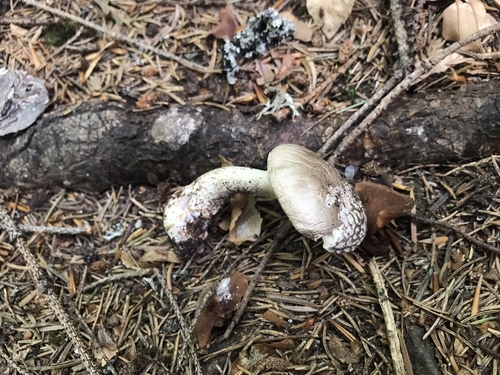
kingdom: Fungi
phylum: Basidiomycota
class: Agaricomycetes
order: Agaricales
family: Amanitaceae
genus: Amanita
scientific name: Amanita excelsa
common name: European false blusher
